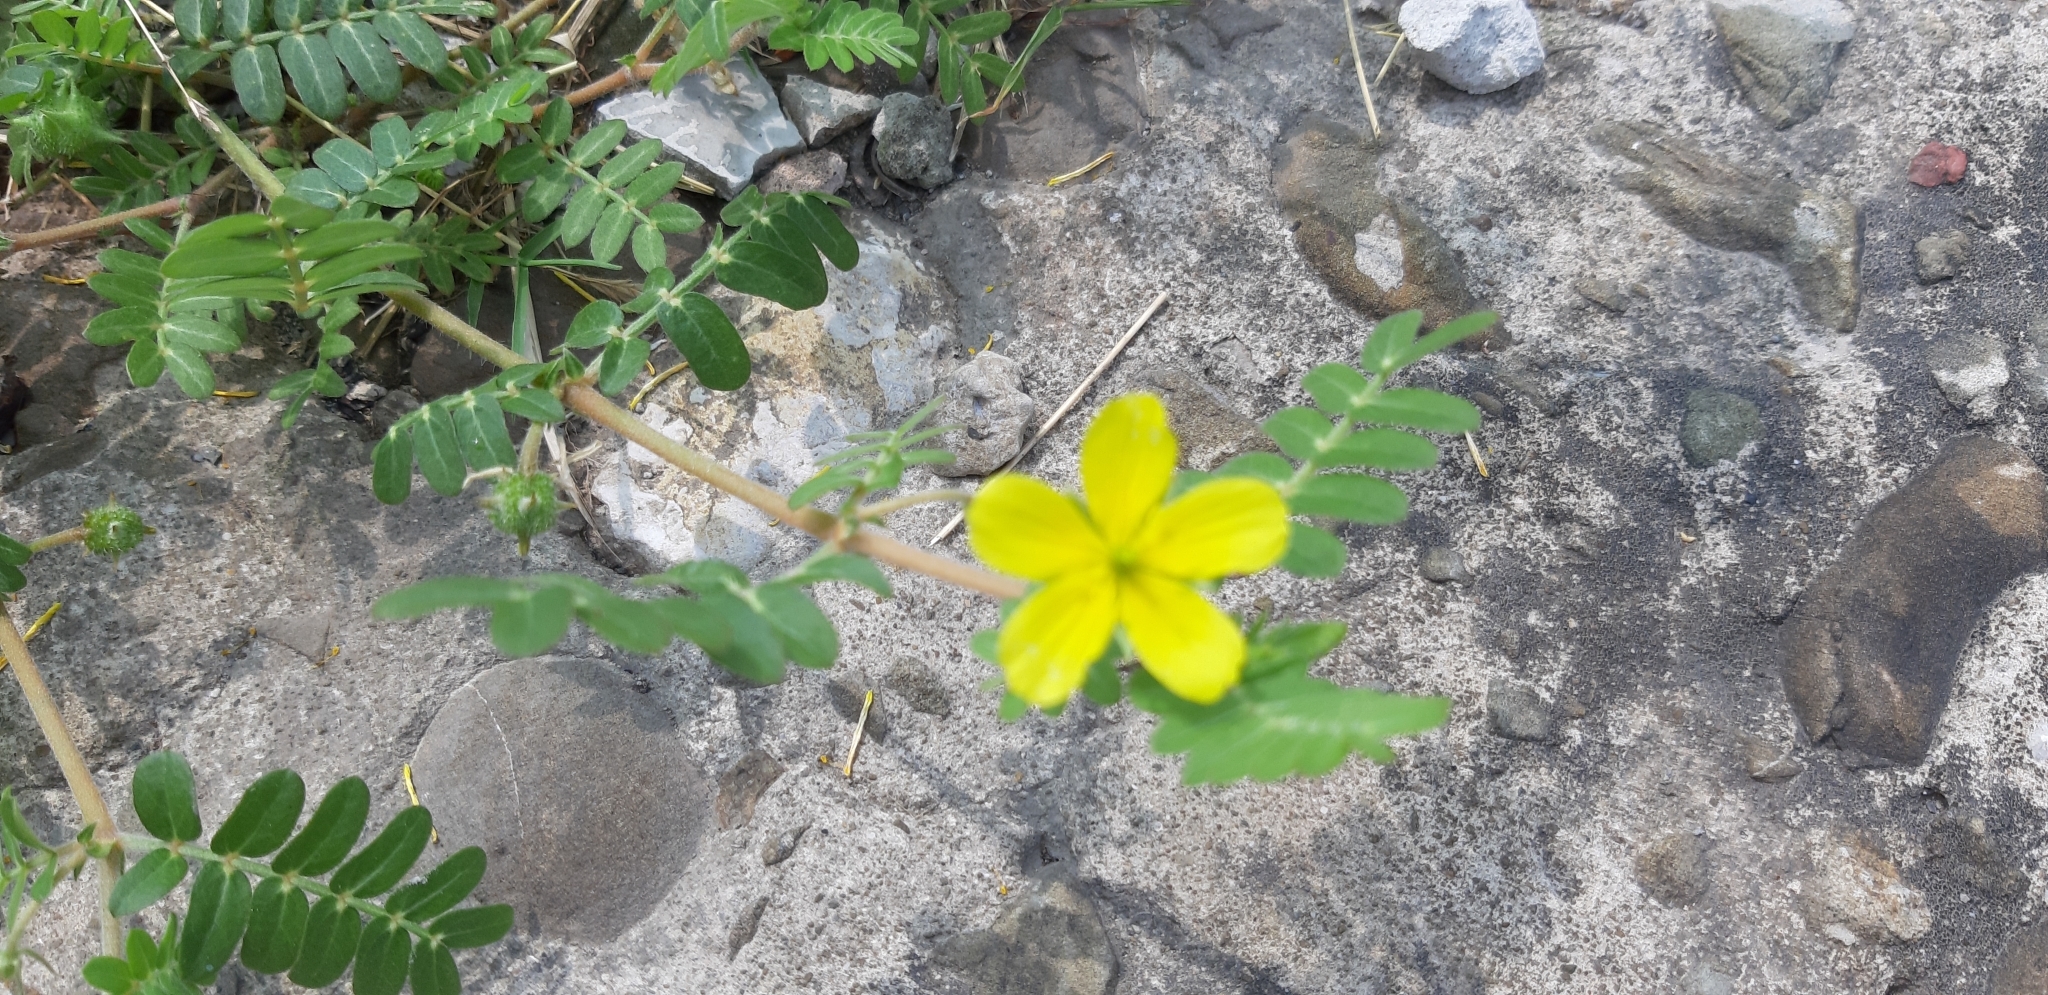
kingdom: Plantae
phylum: Tracheophyta
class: Magnoliopsida
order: Zygophyllales
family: Zygophyllaceae
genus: Tribulus
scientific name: Tribulus cistoides
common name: Jamaican feverplant
